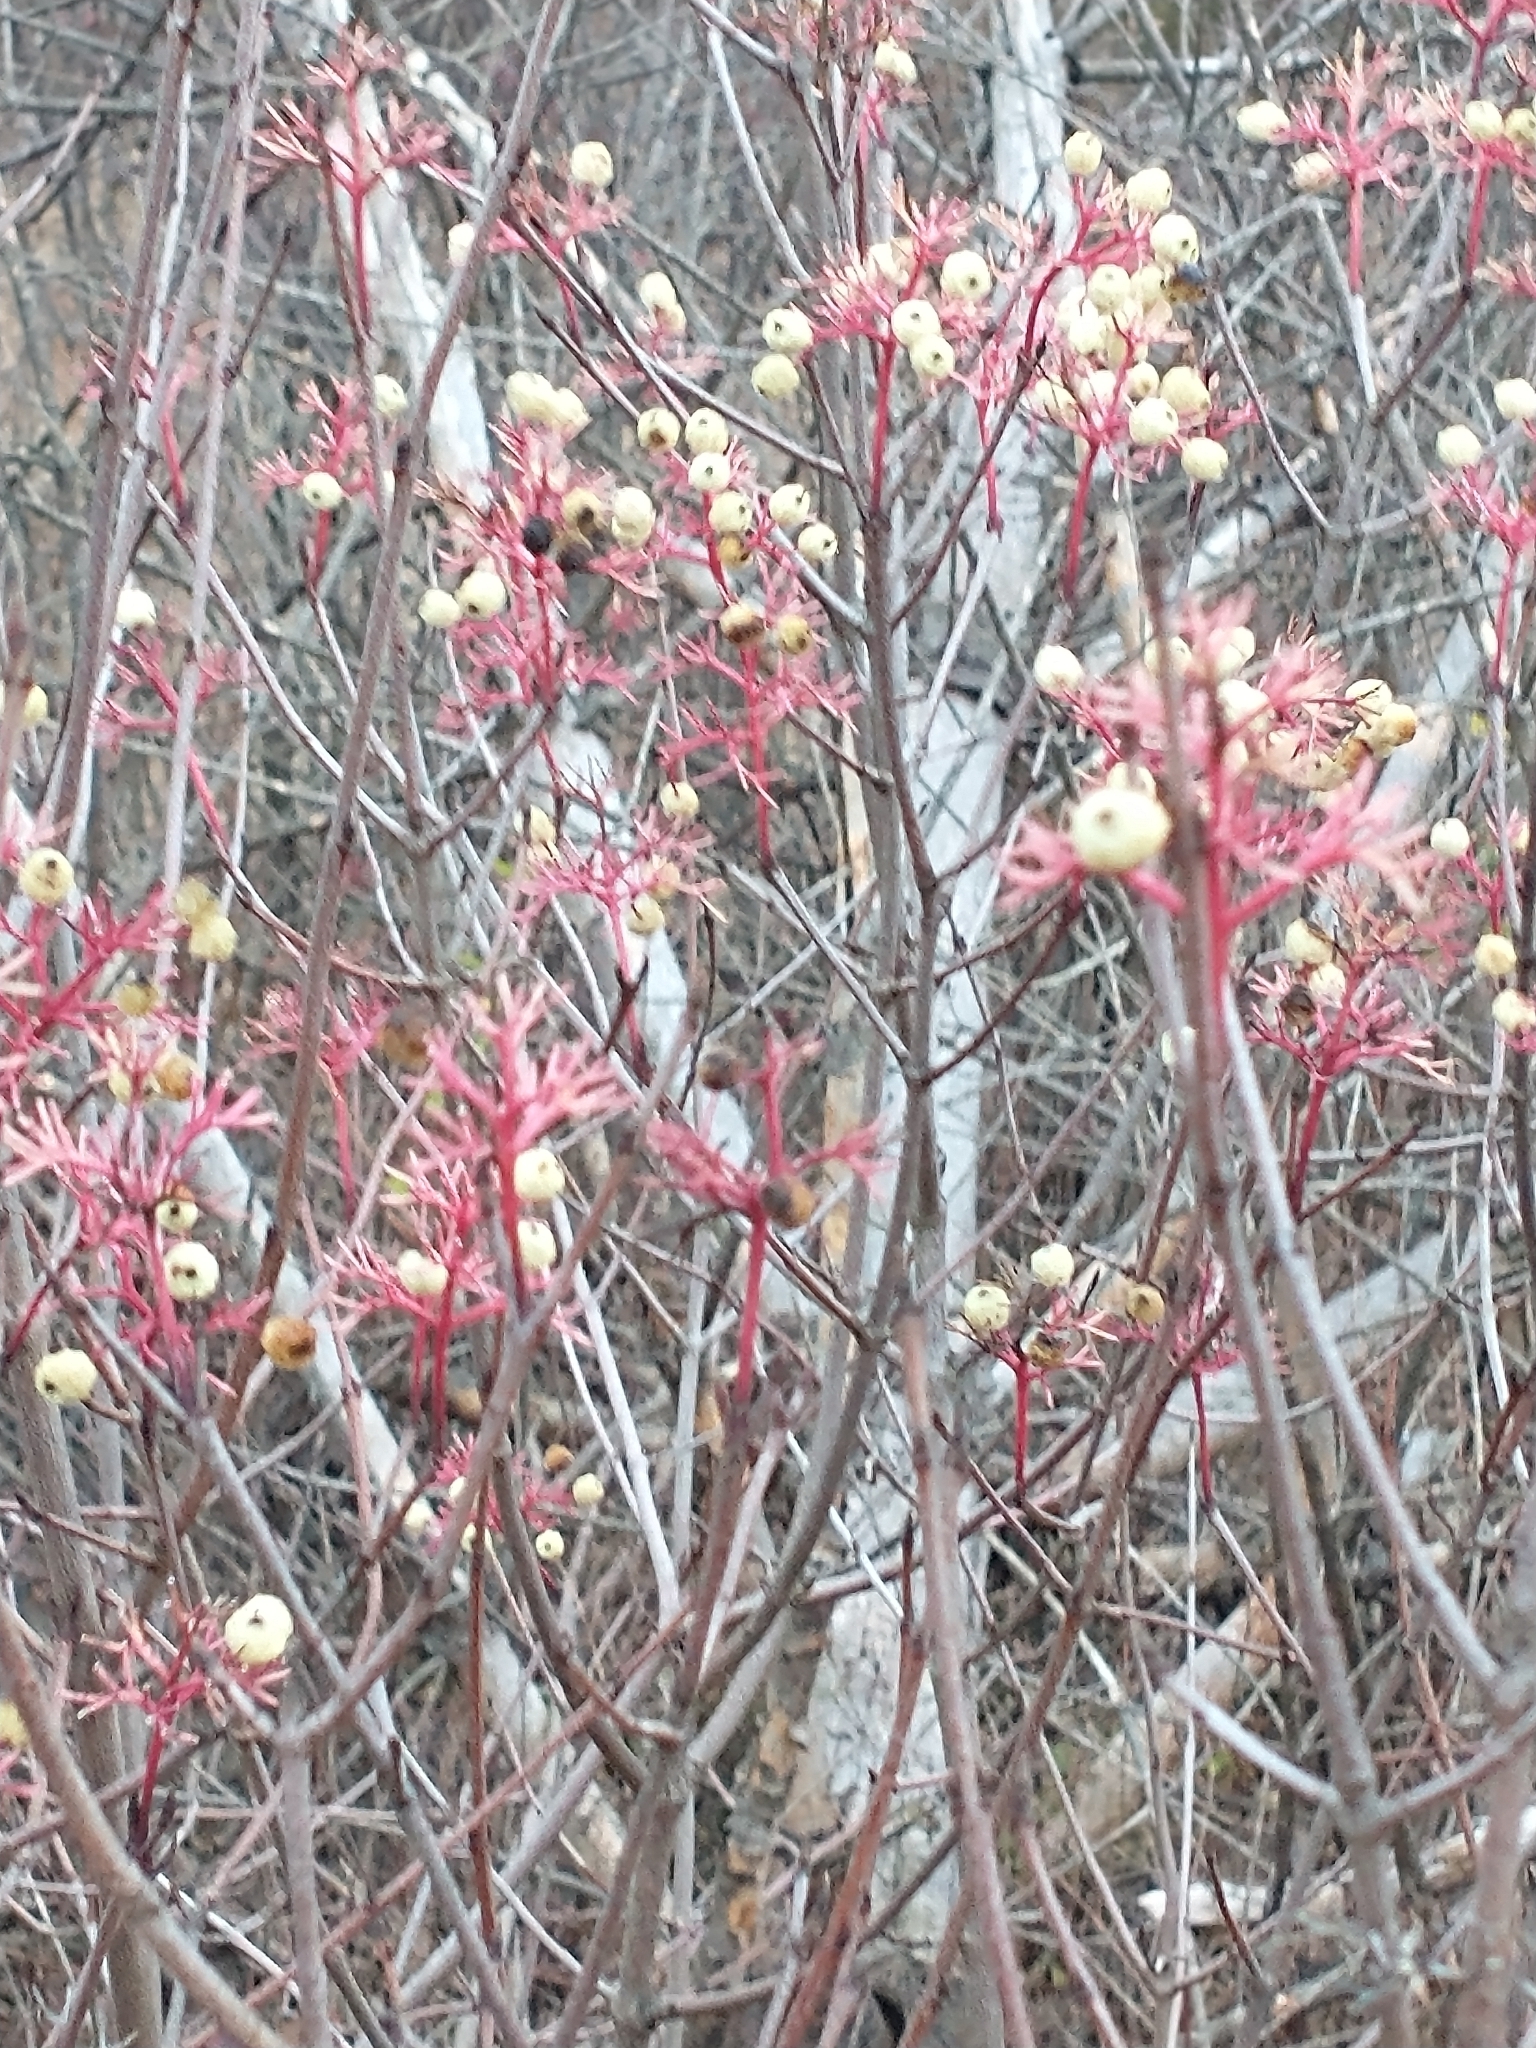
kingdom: Plantae
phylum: Tracheophyta
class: Magnoliopsida
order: Cornales
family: Cornaceae
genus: Cornus
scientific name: Cornus racemosa
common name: Panicled dogwood
